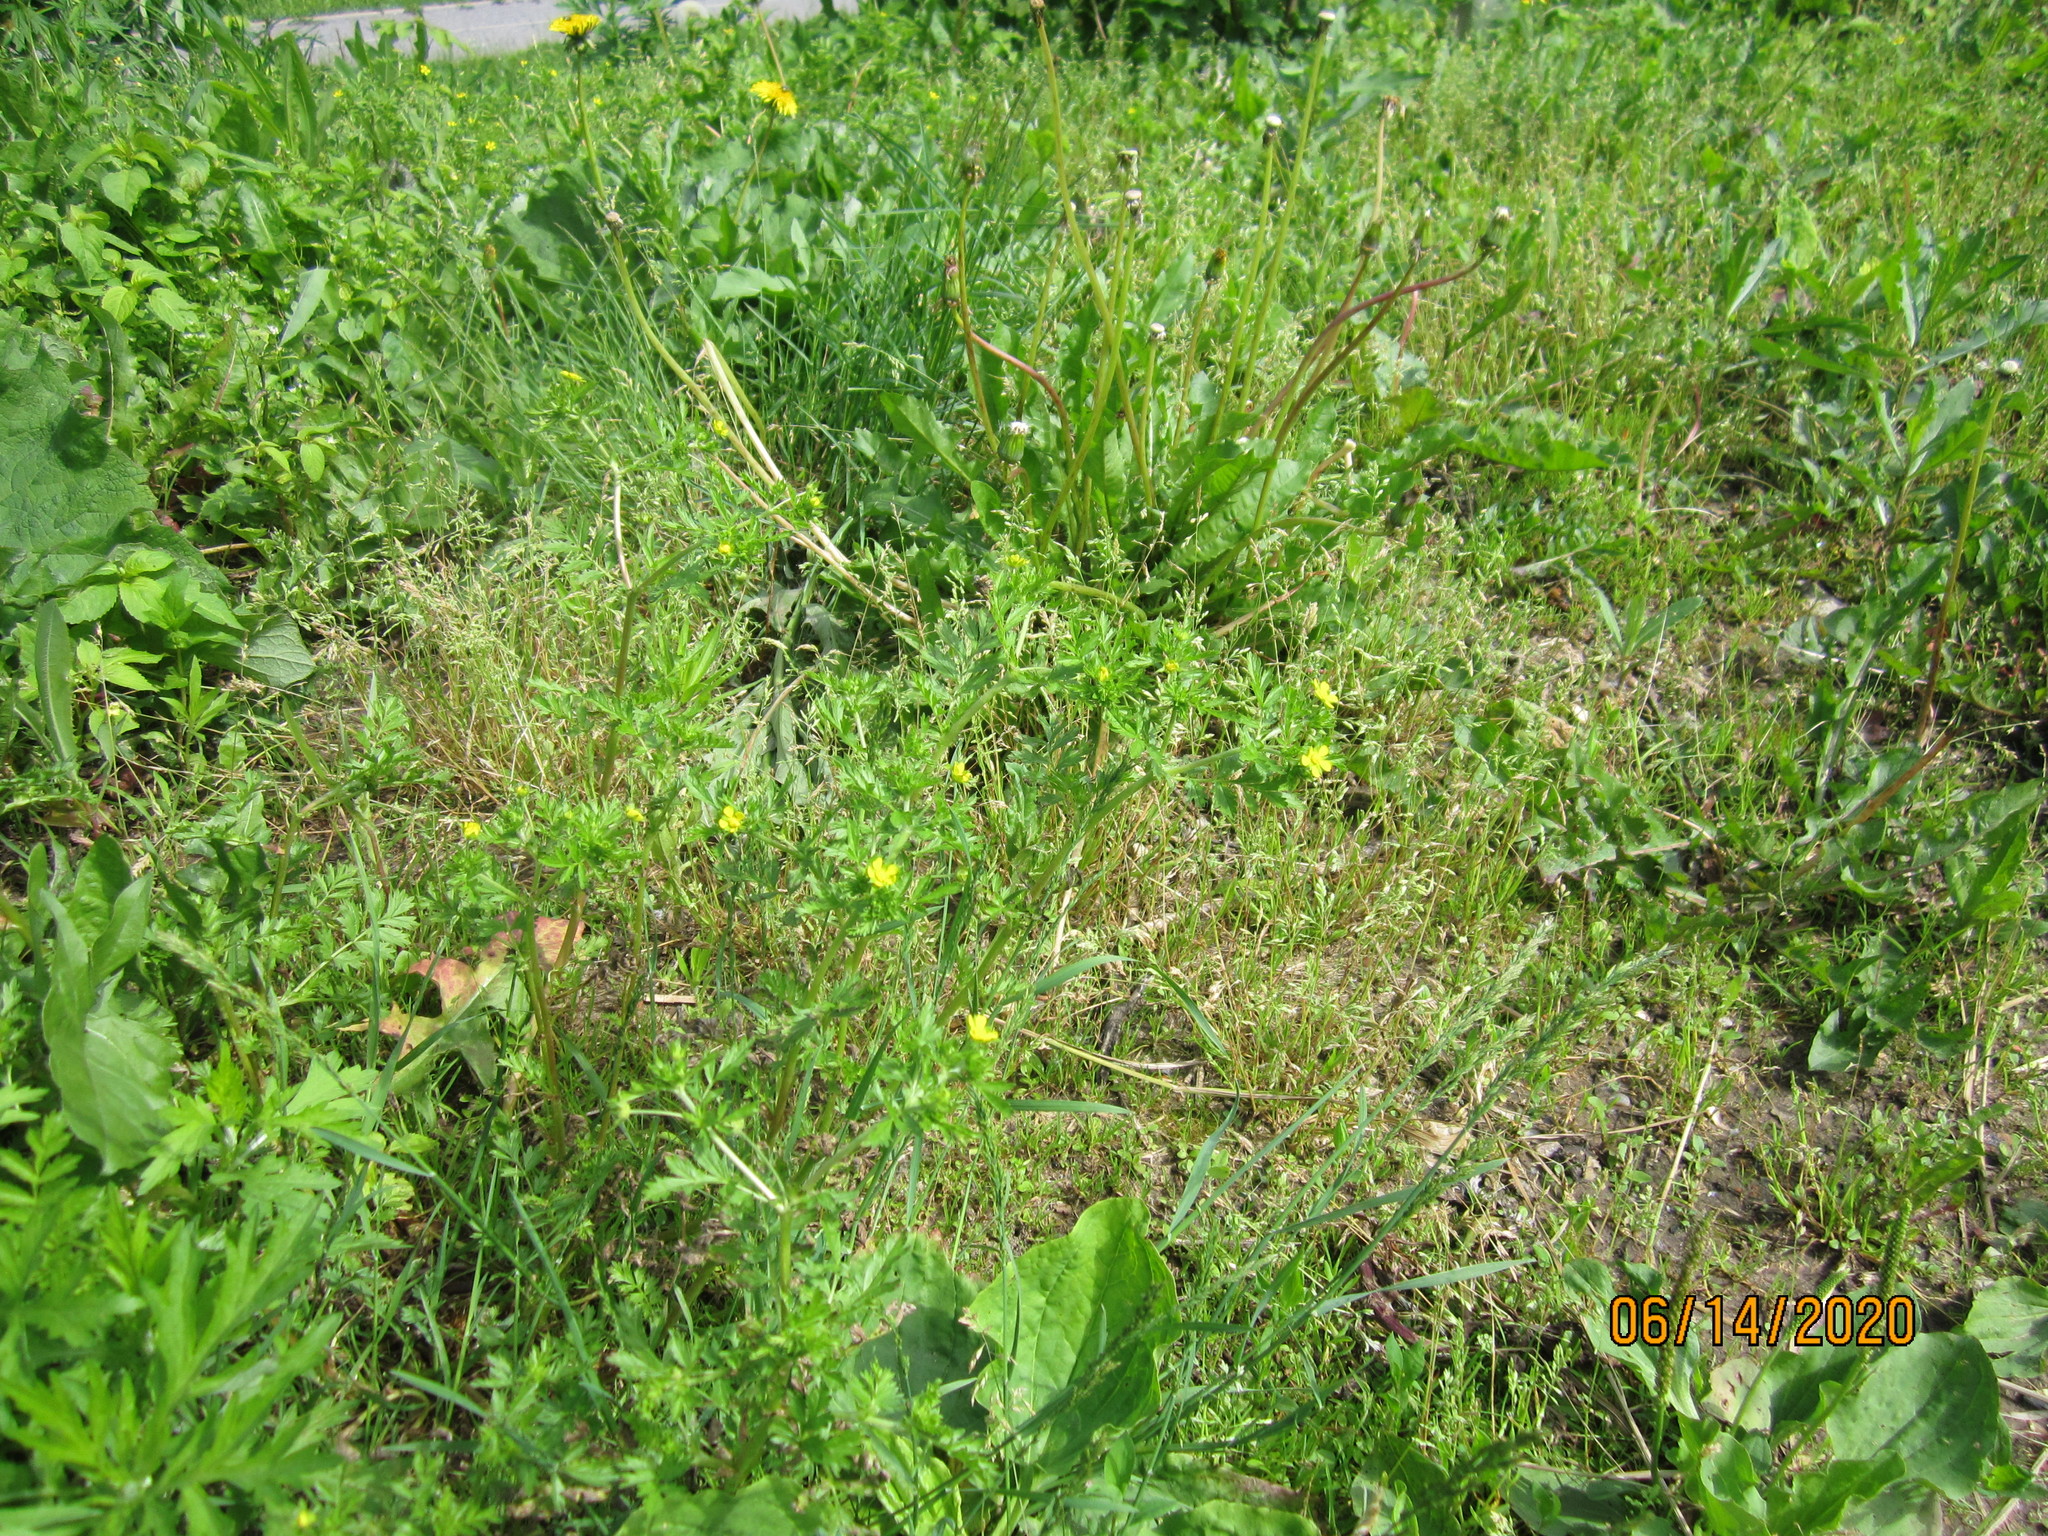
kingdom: Plantae
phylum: Tracheophyta
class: Magnoliopsida
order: Rosales
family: Rosaceae
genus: Potentilla
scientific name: Potentilla supina
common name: Prostrate cinquefoil
